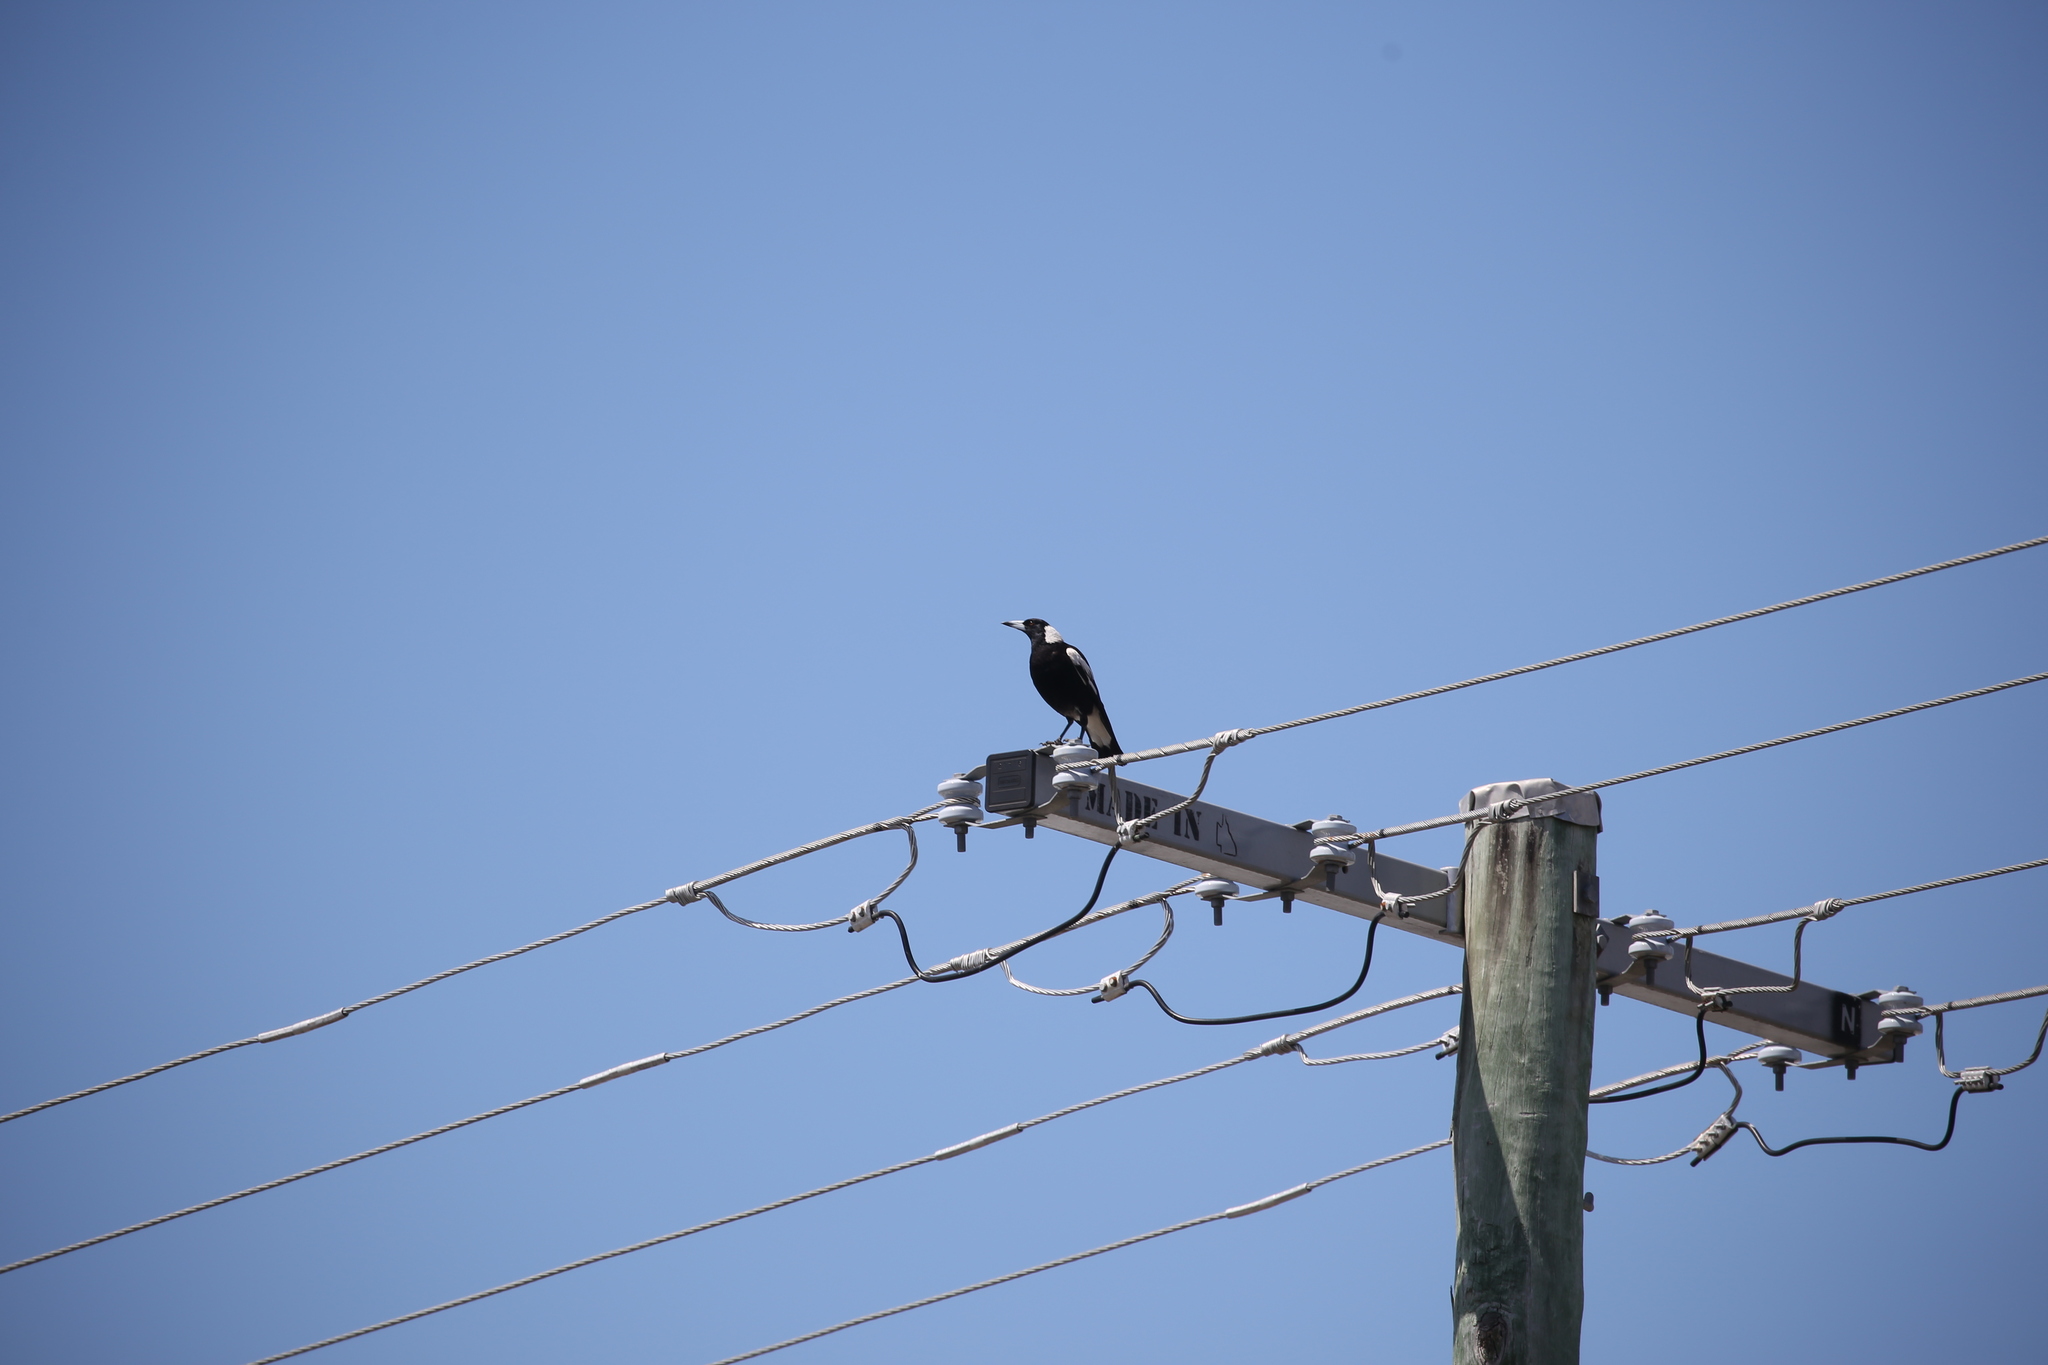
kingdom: Animalia
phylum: Chordata
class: Aves
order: Passeriformes
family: Cracticidae
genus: Gymnorhina
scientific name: Gymnorhina tibicen
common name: Australian magpie
